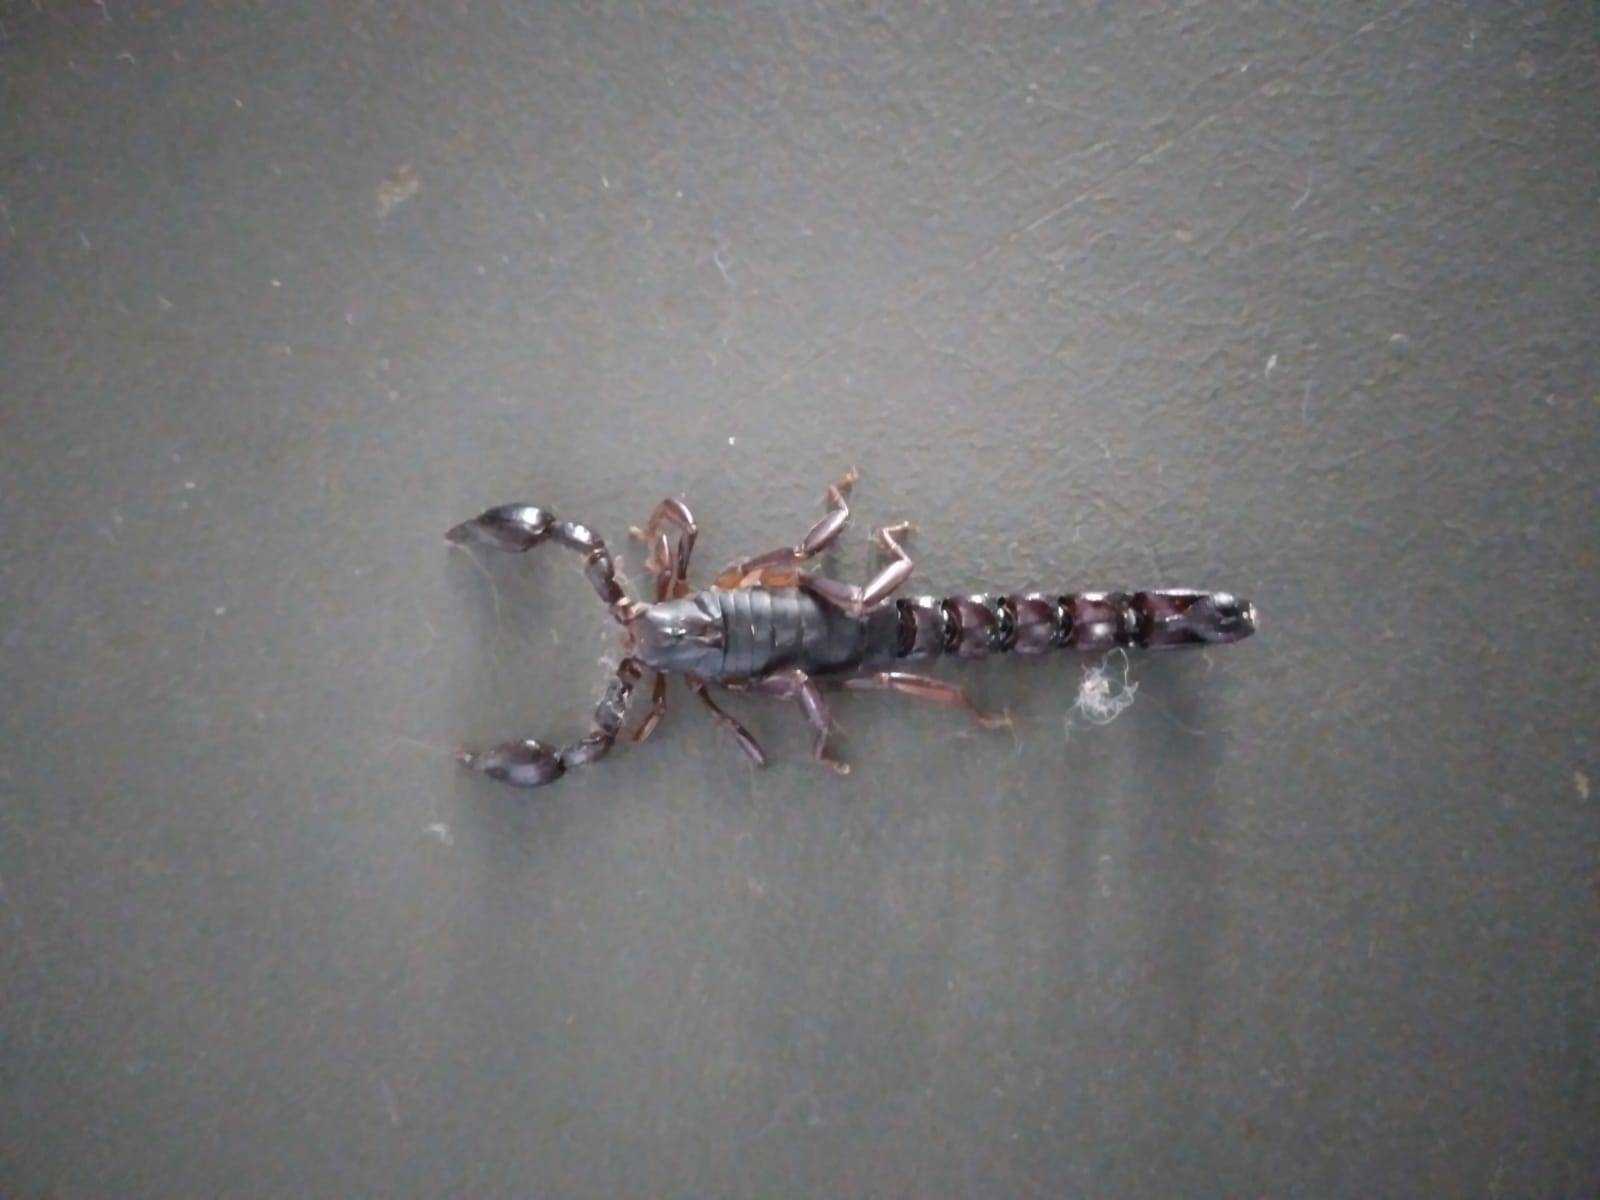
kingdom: Animalia
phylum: Arthropoda
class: Arachnida
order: Scorpiones
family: Bothriuridae
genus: Bothriurus
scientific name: Bothriurus bonariensis
